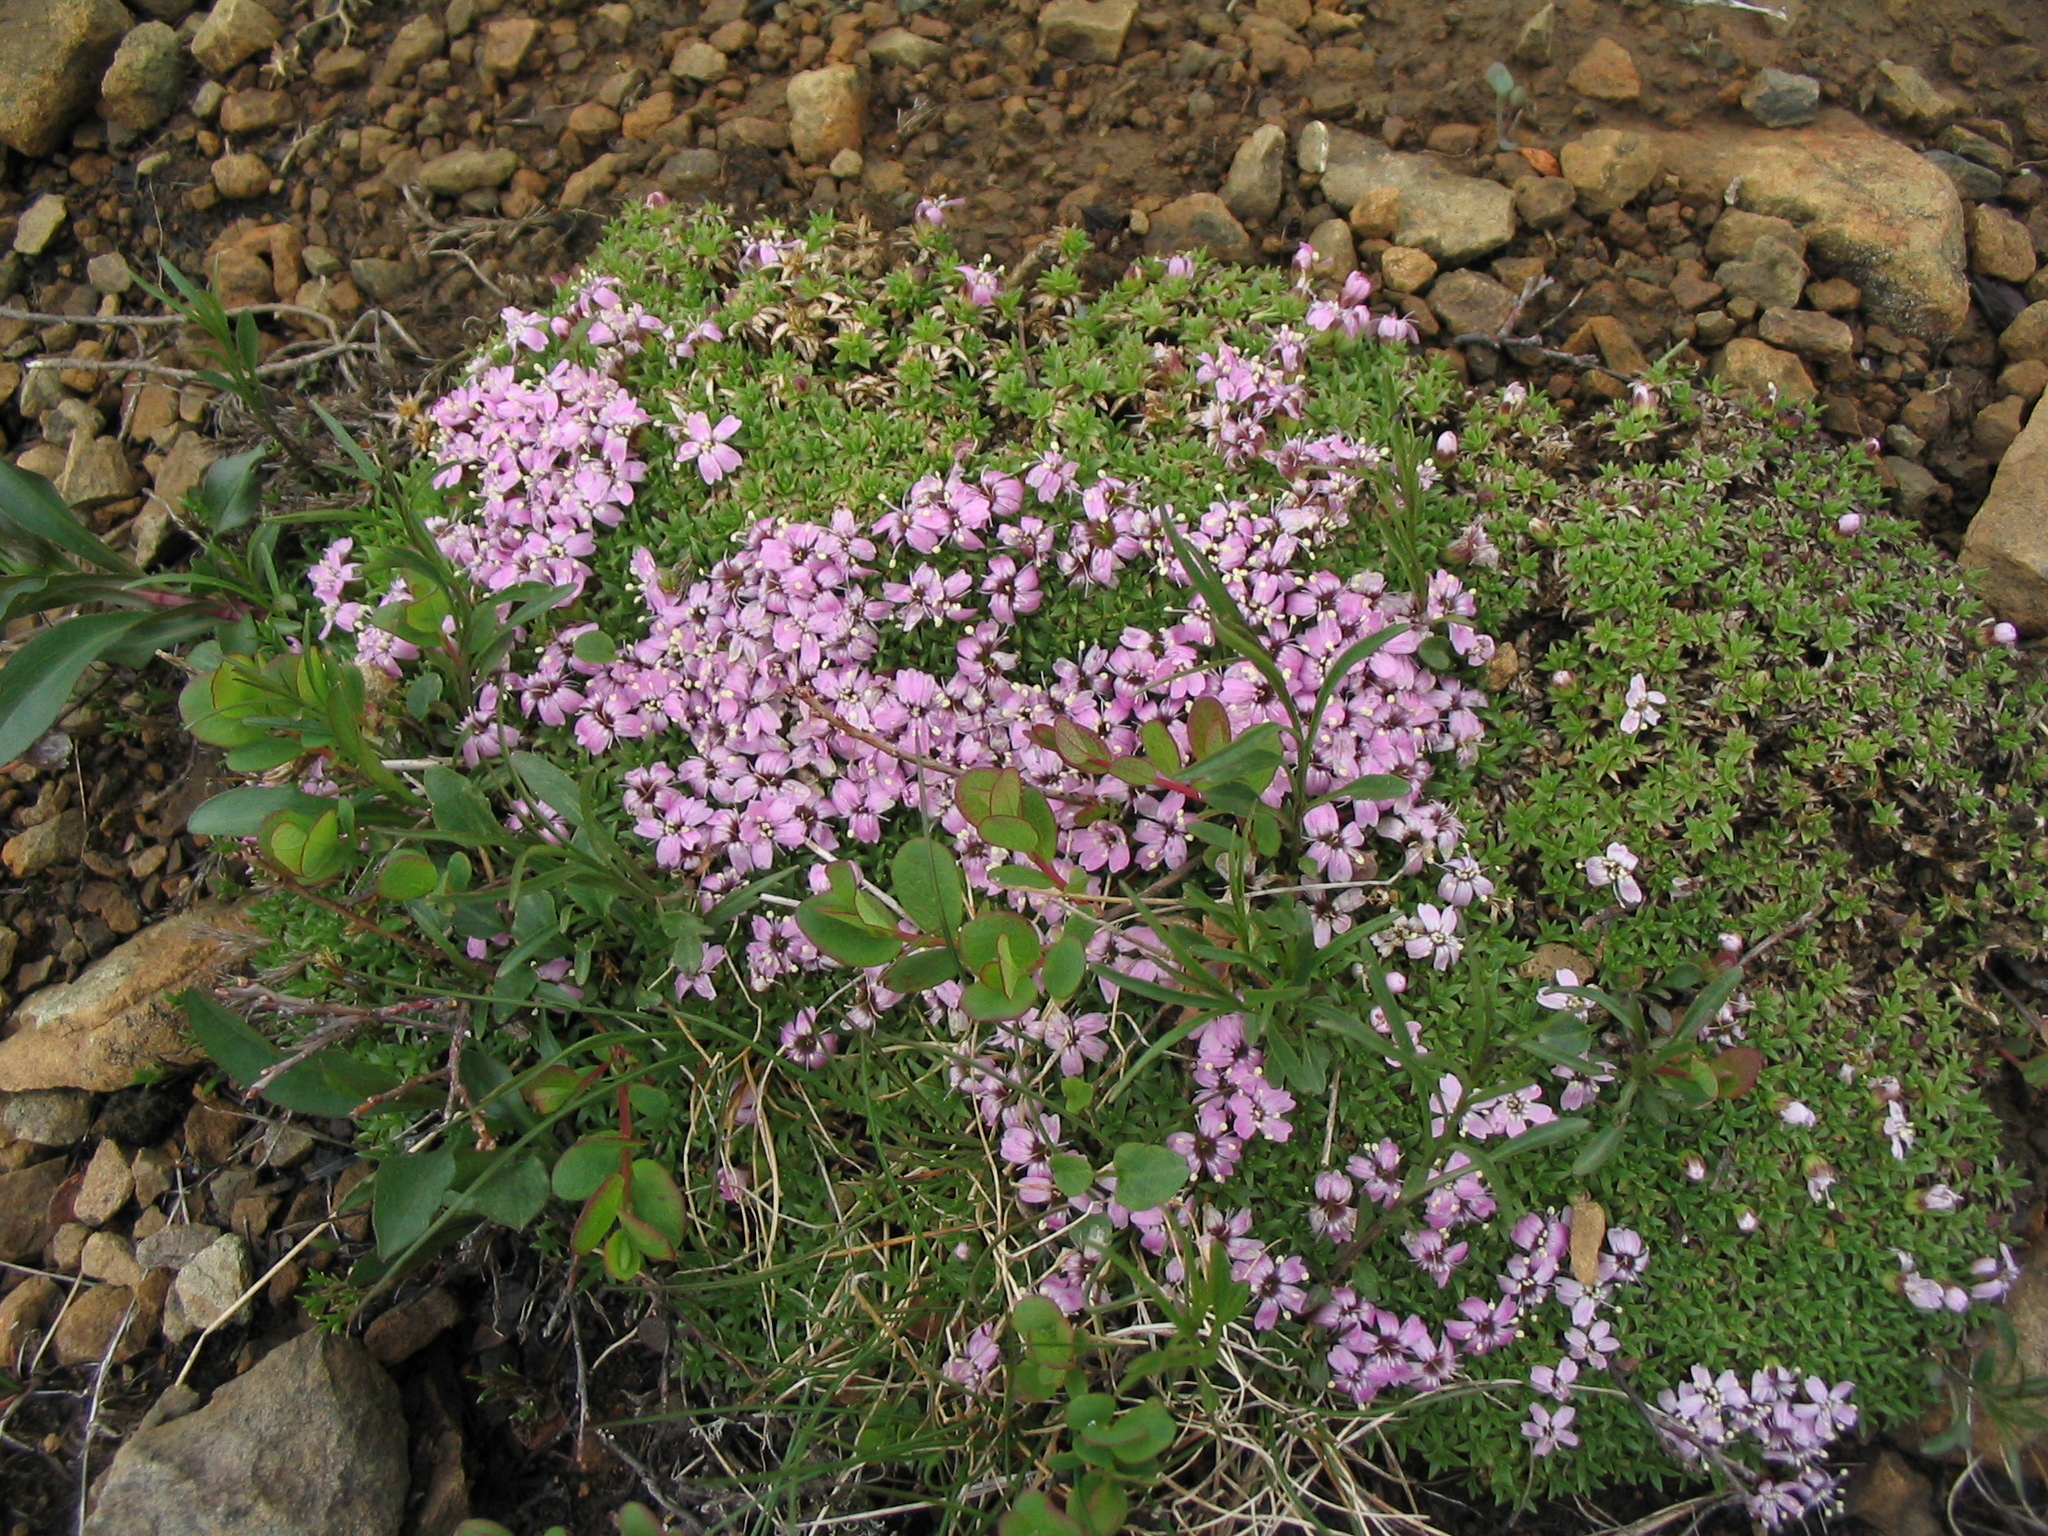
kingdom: Plantae
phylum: Tracheophyta
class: Magnoliopsida
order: Caryophyllales
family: Caryophyllaceae
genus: Silene
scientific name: Silene acaulis
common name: Moss campion
